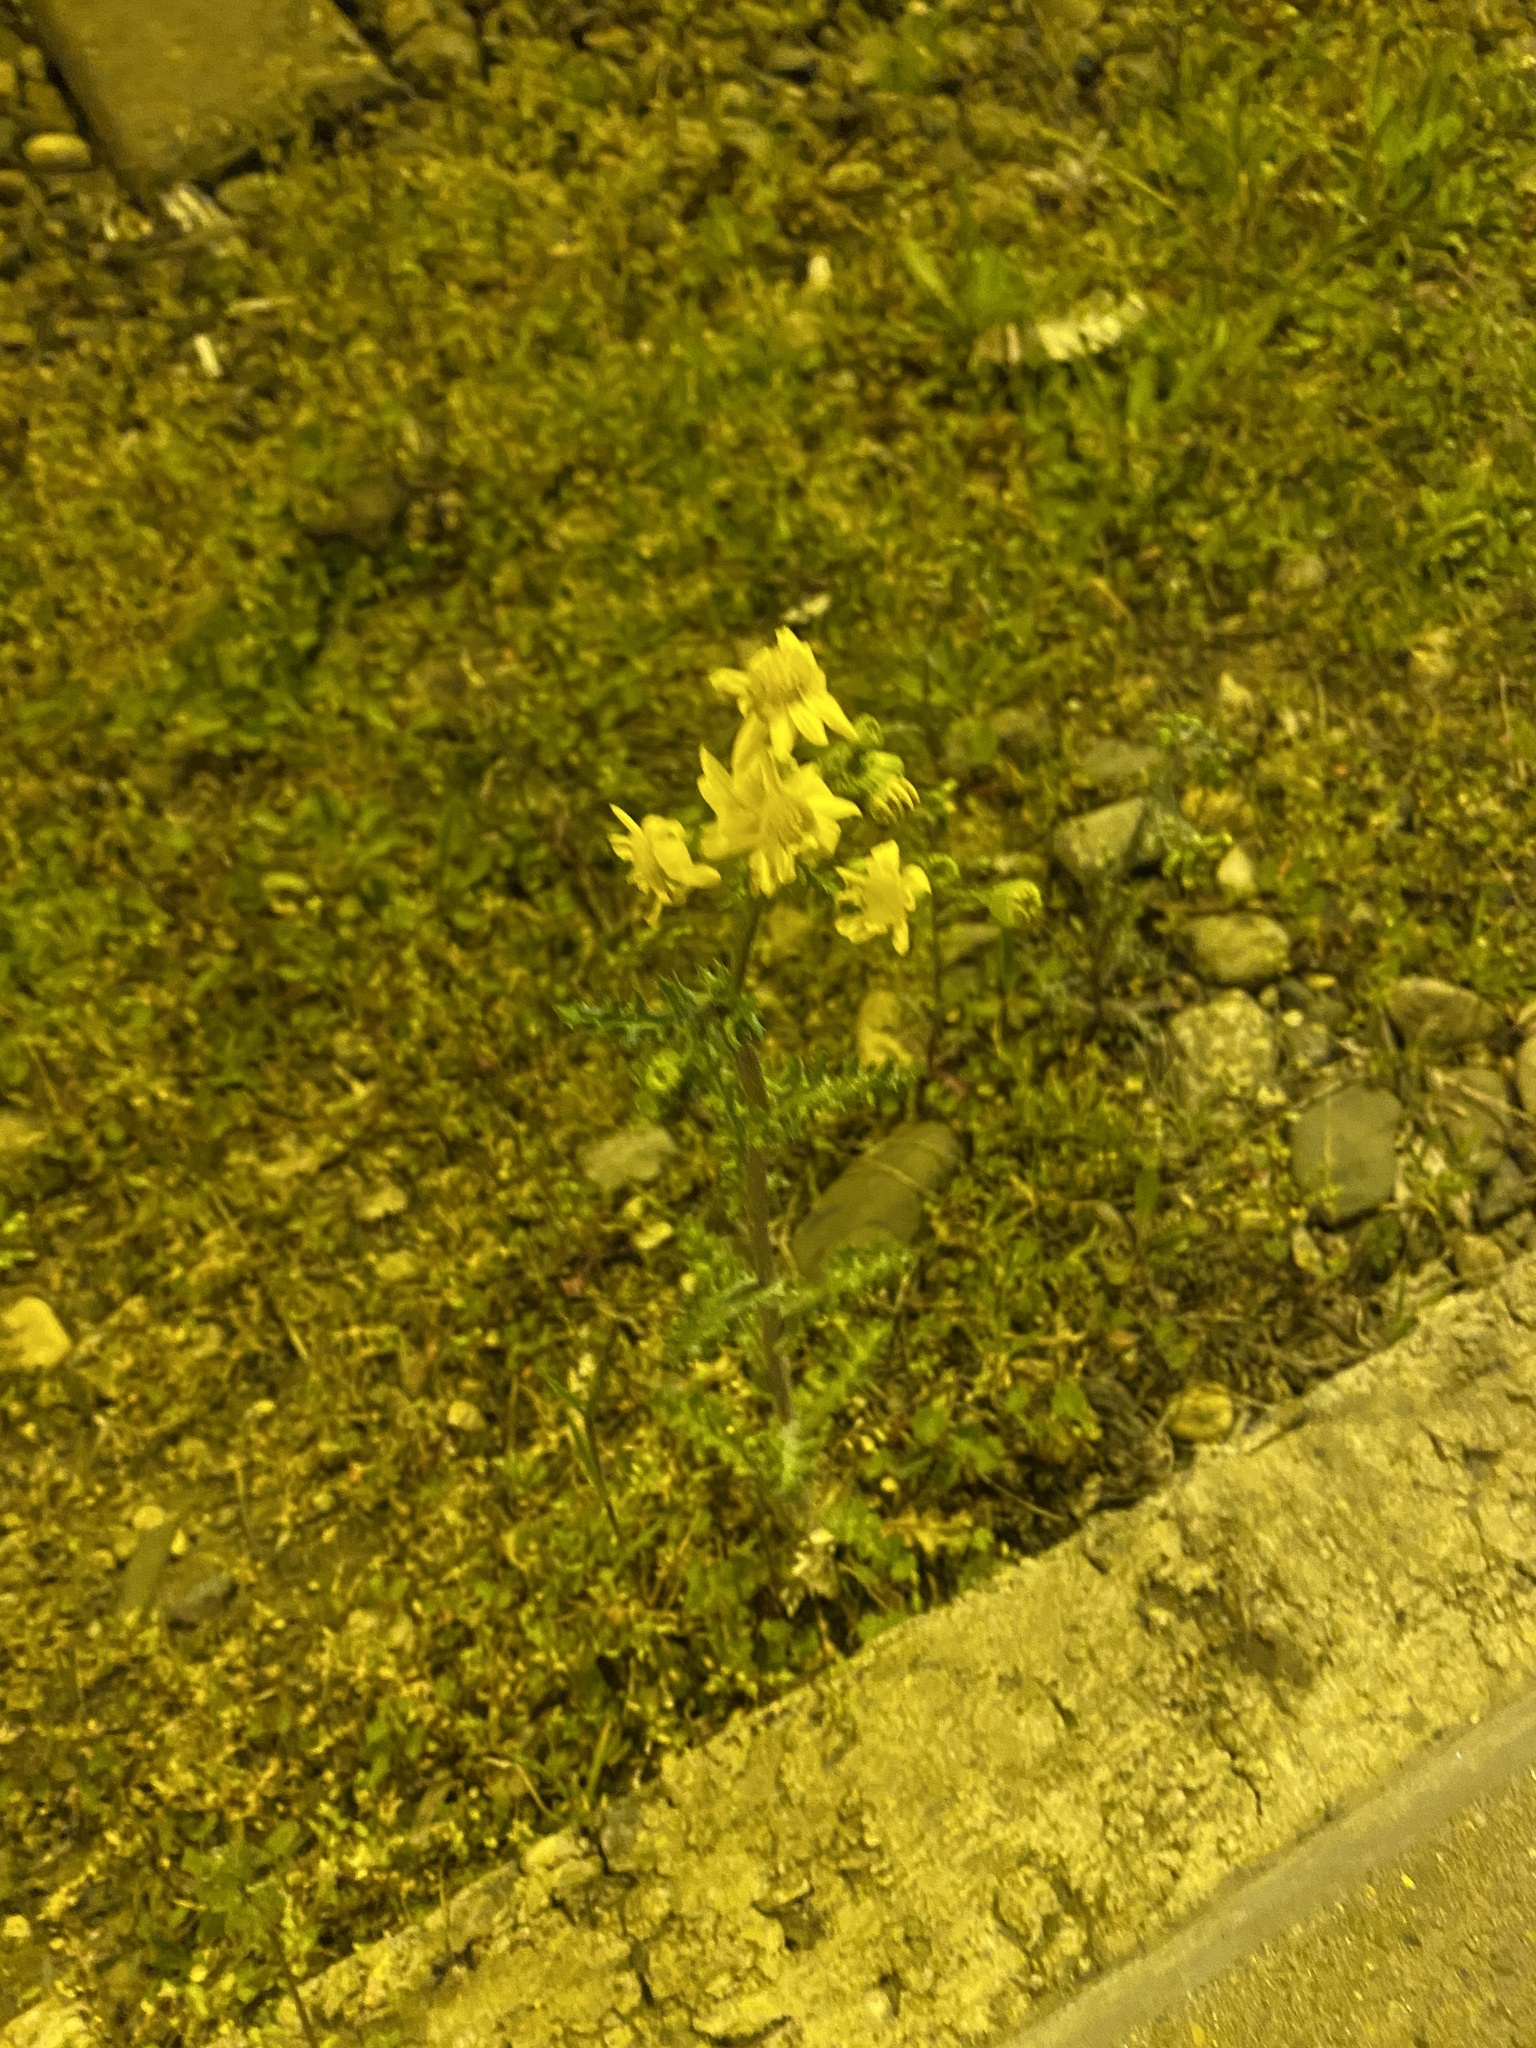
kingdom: Plantae
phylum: Tracheophyta
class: Magnoliopsida
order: Asterales
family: Asteraceae
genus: Senecio
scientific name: Senecio vernalis
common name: Eastern groundsel
